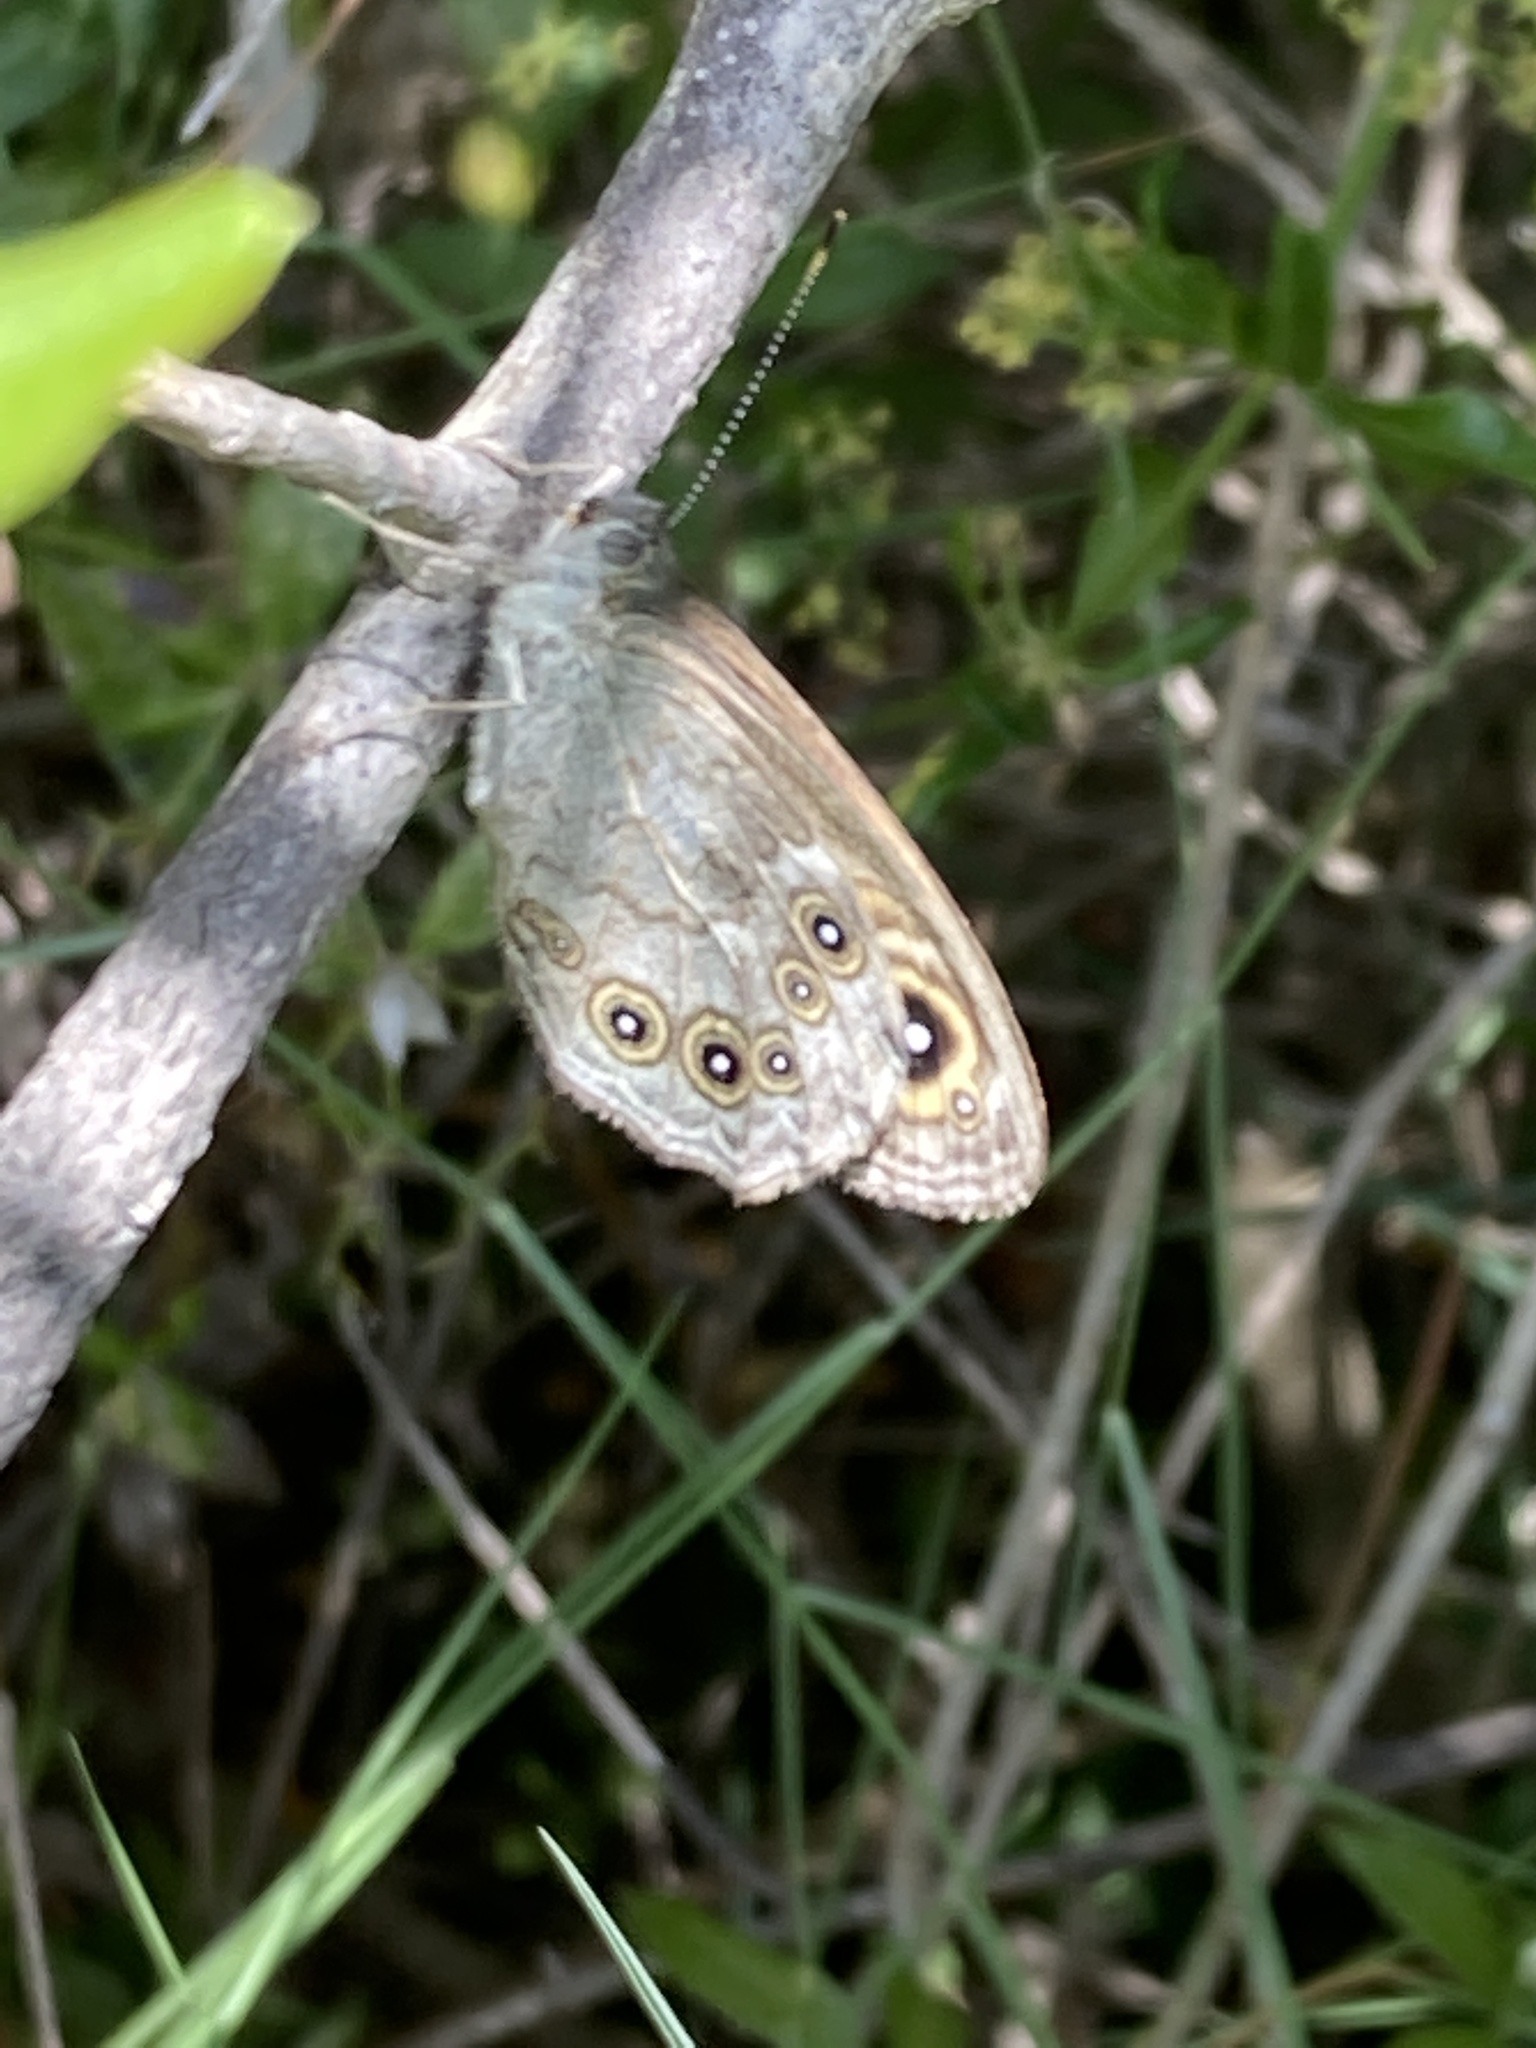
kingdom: Animalia
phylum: Arthropoda
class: Insecta
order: Lepidoptera
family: Nymphalidae
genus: Pararge
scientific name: Pararge Lasiommata maera
